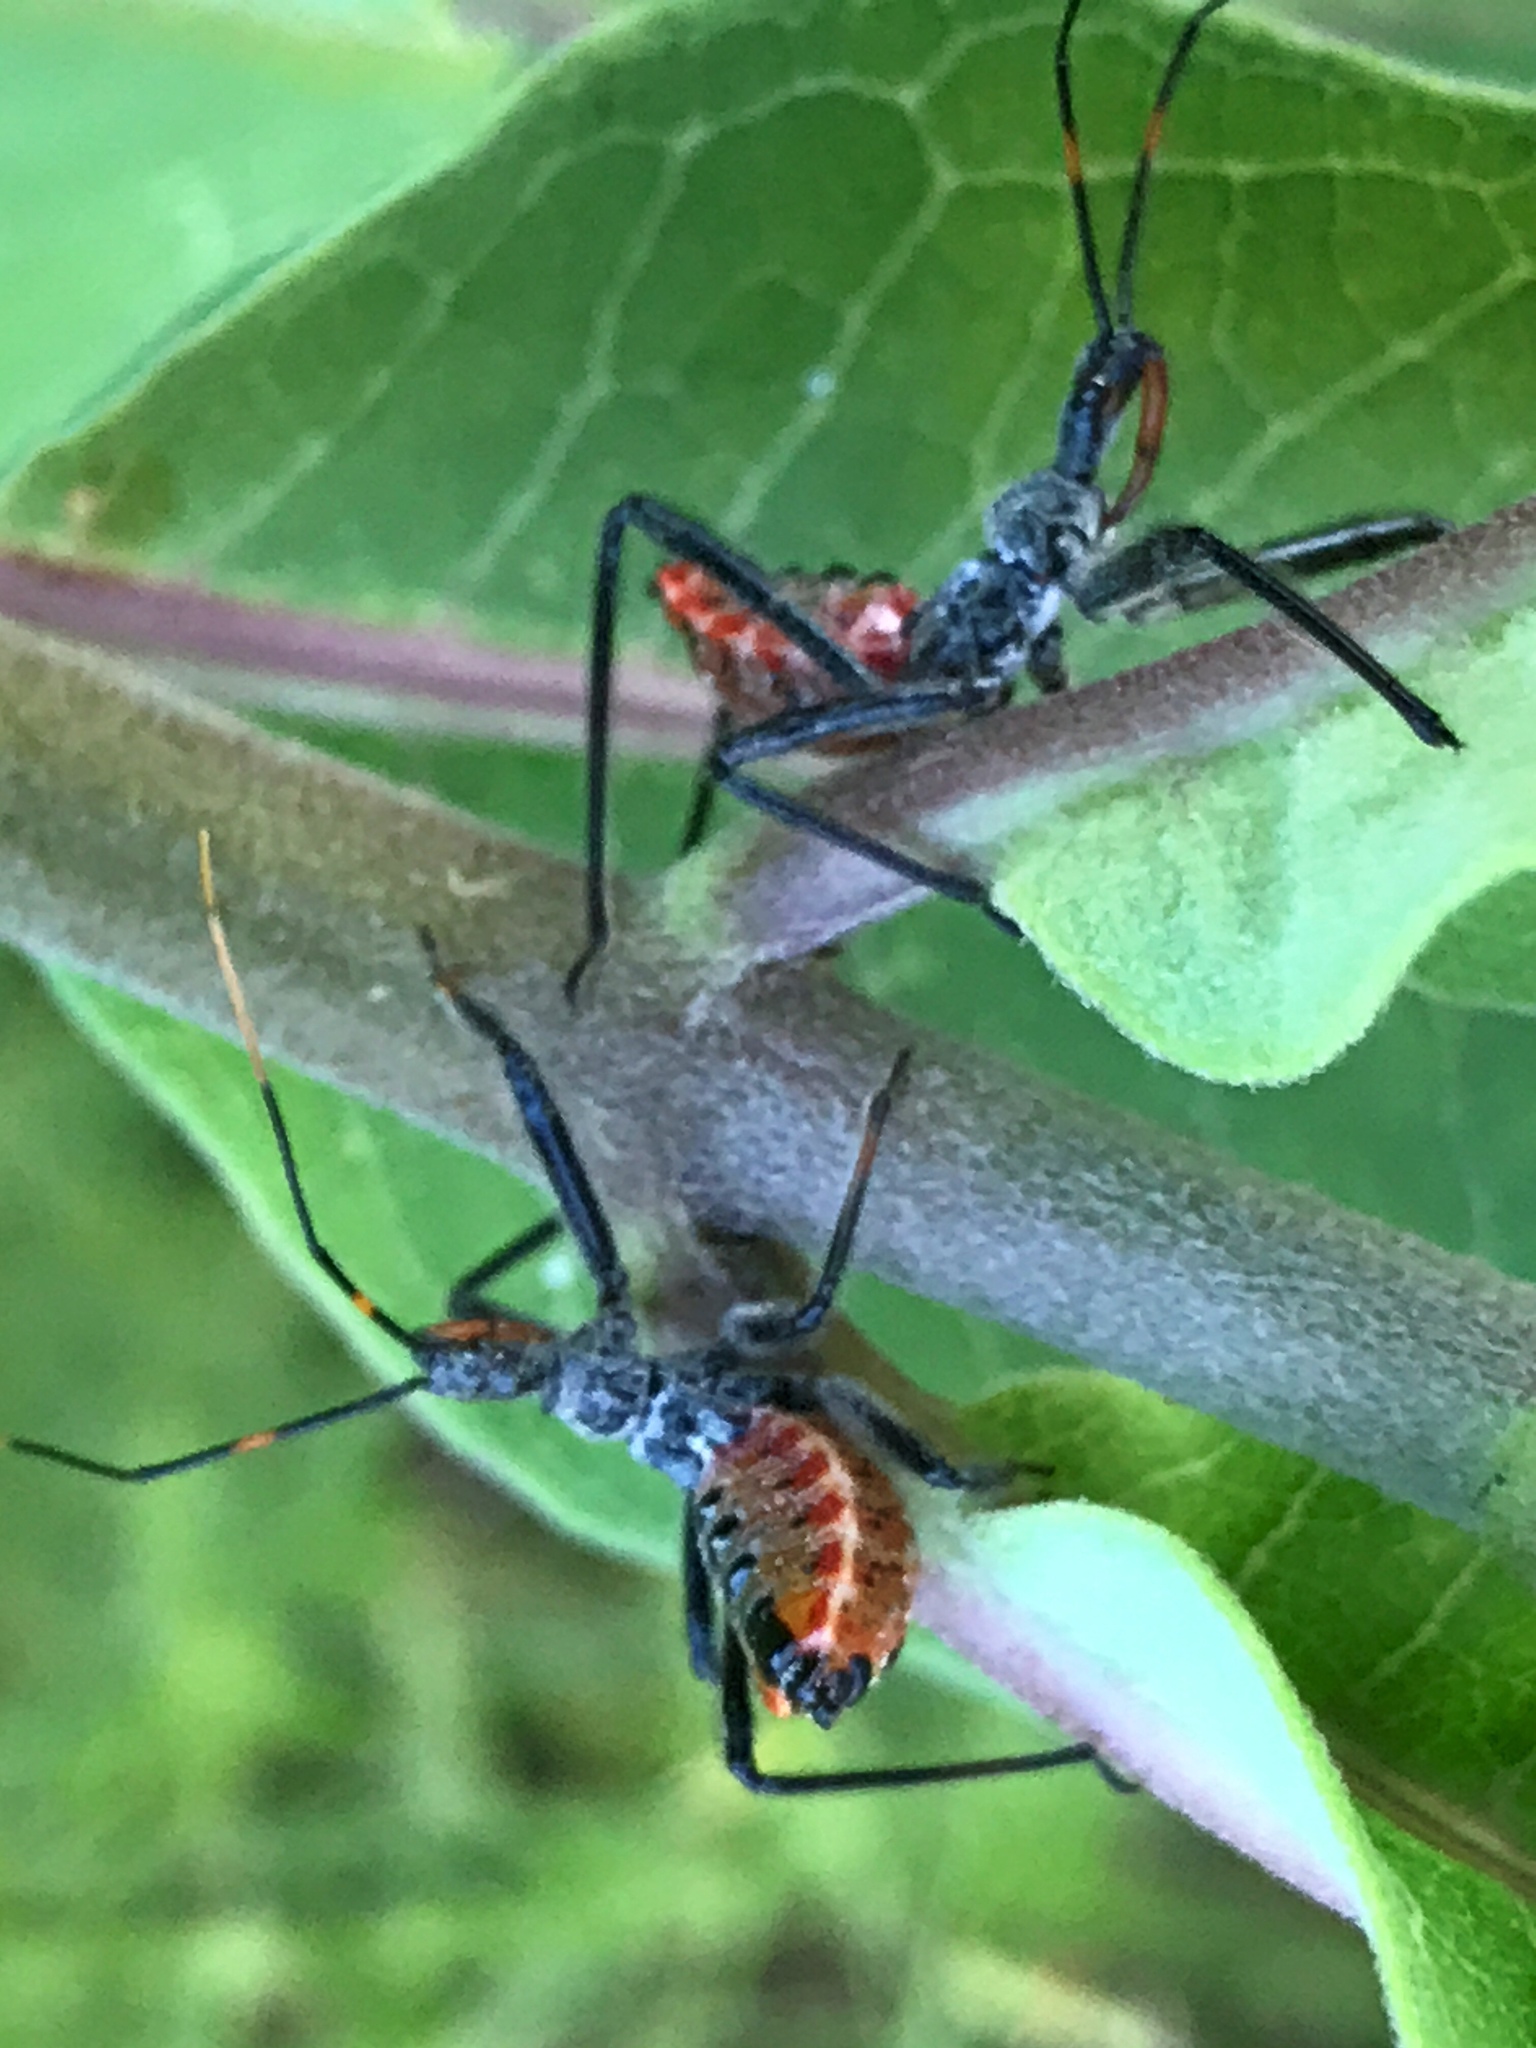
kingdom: Animalia
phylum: Arthropoda
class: Insecta
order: Hemiptera
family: Reduviidae
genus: Arilus
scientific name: Arilus cristatus
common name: North american wheel bug
